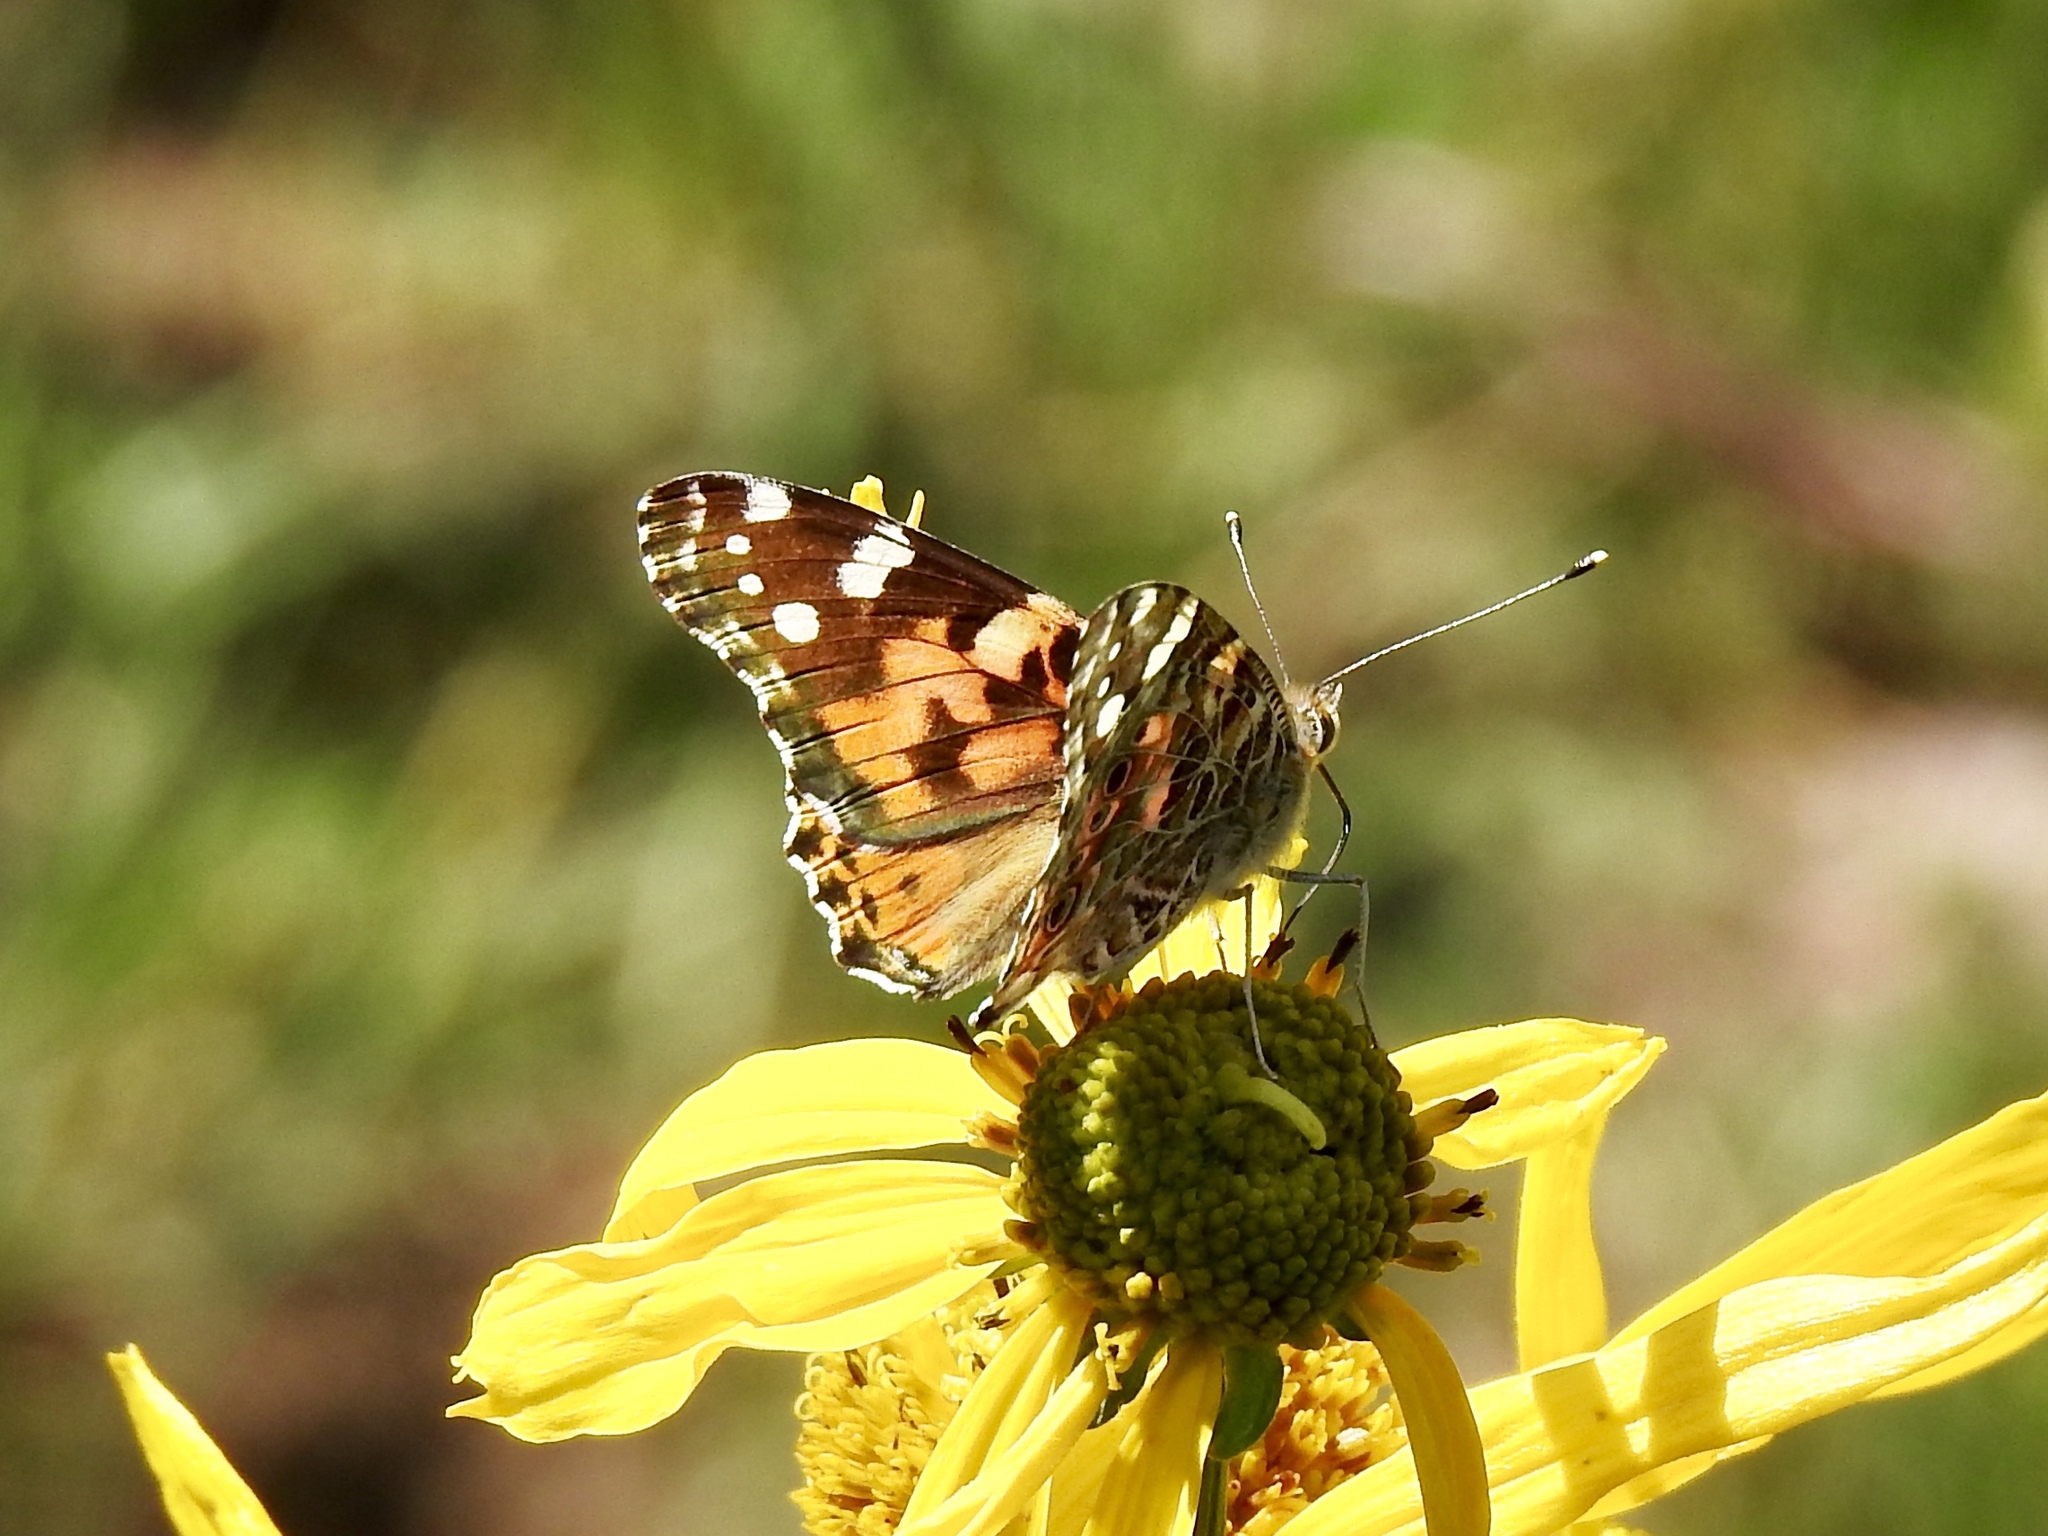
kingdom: Animalia
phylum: Arthropoda
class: Insecta
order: Lepidoptera
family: Nymphalidae
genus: Vanessa
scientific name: Vanessa cardui
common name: Painted lady
